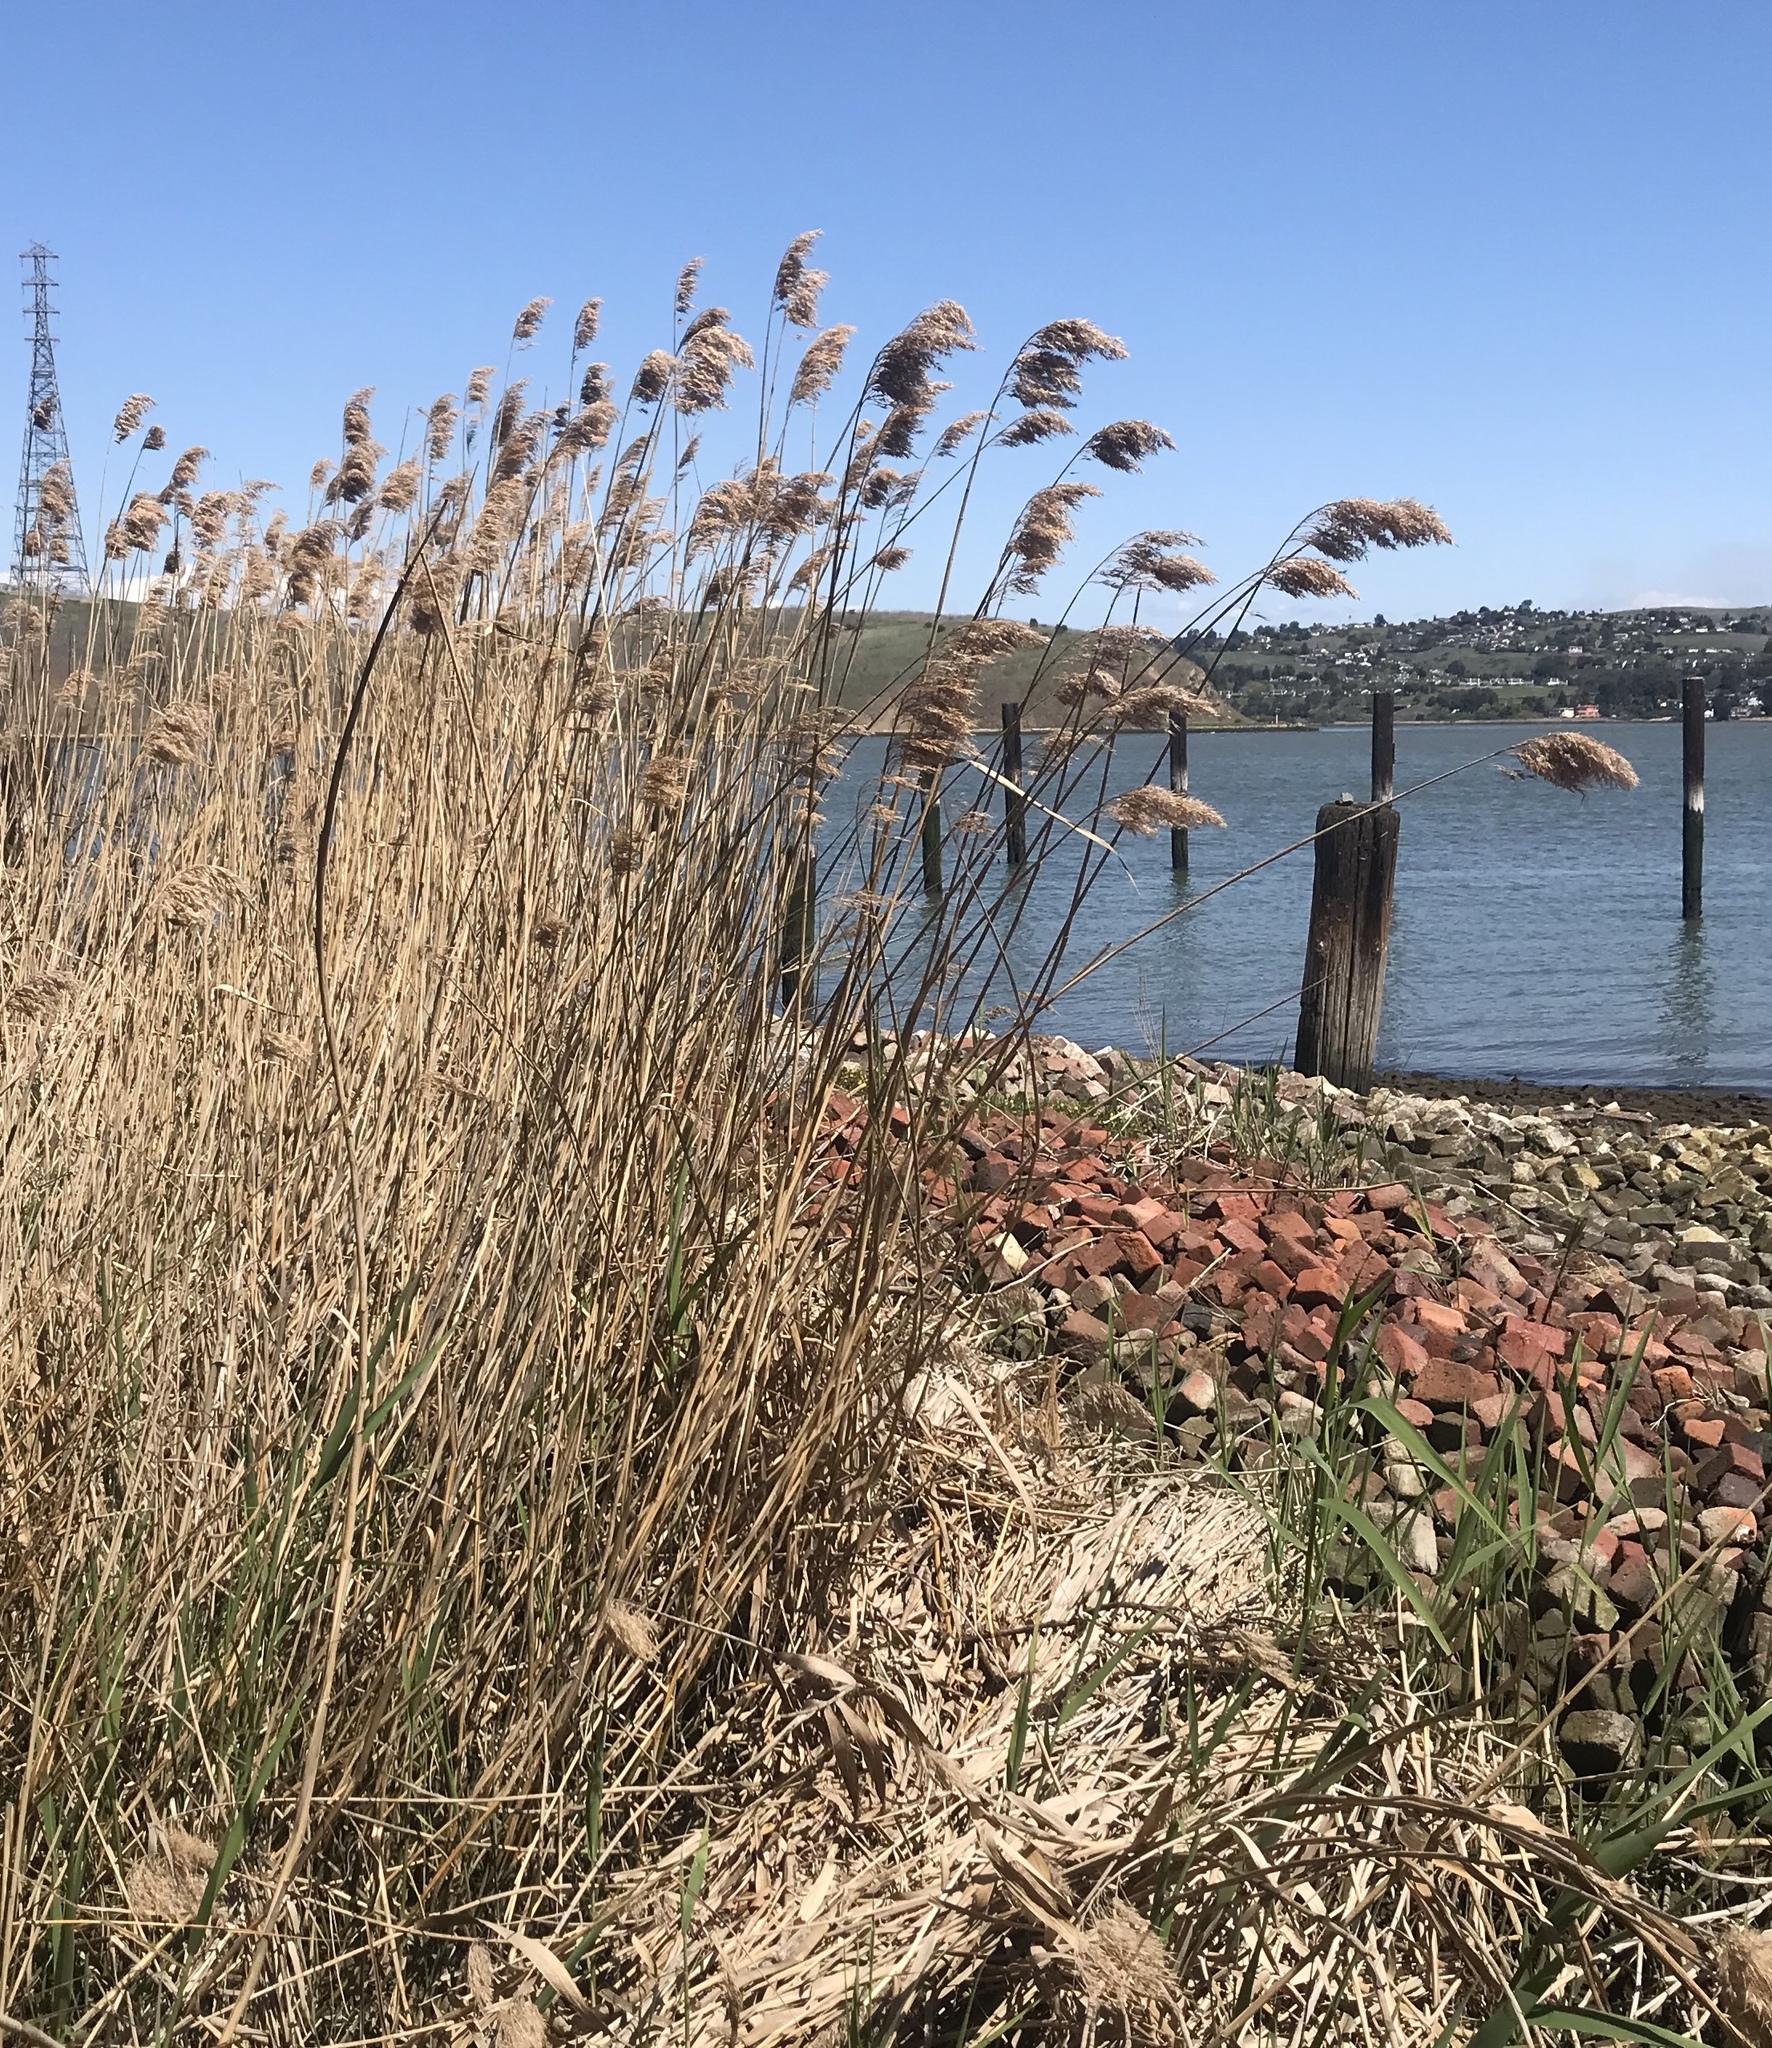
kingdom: Plantae
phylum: Tracheophyta
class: Liliopsida
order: Poales
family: Poaceae
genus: Phragmites
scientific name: Phragmites australis
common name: Common reed
